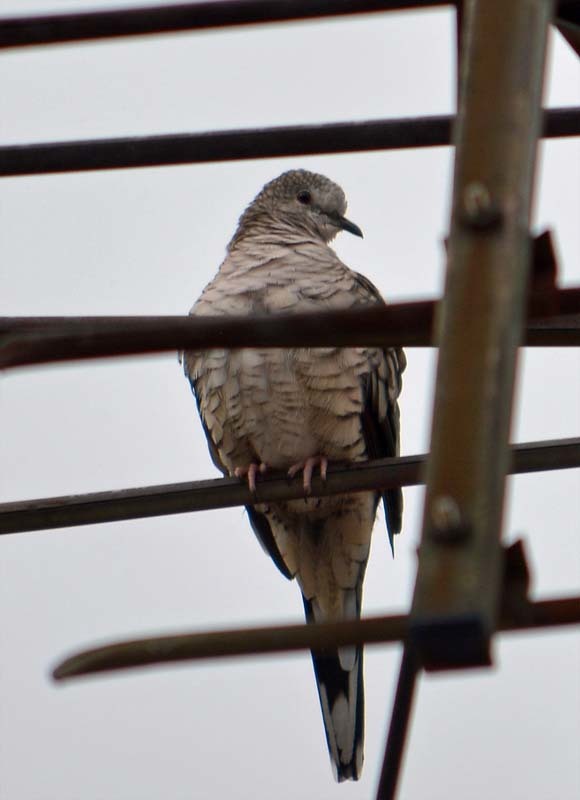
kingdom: Animalia
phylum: Chordata
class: Aves
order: Columbiformes
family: Columbidae
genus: Columbina
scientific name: Columbina inca
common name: Inca dove
